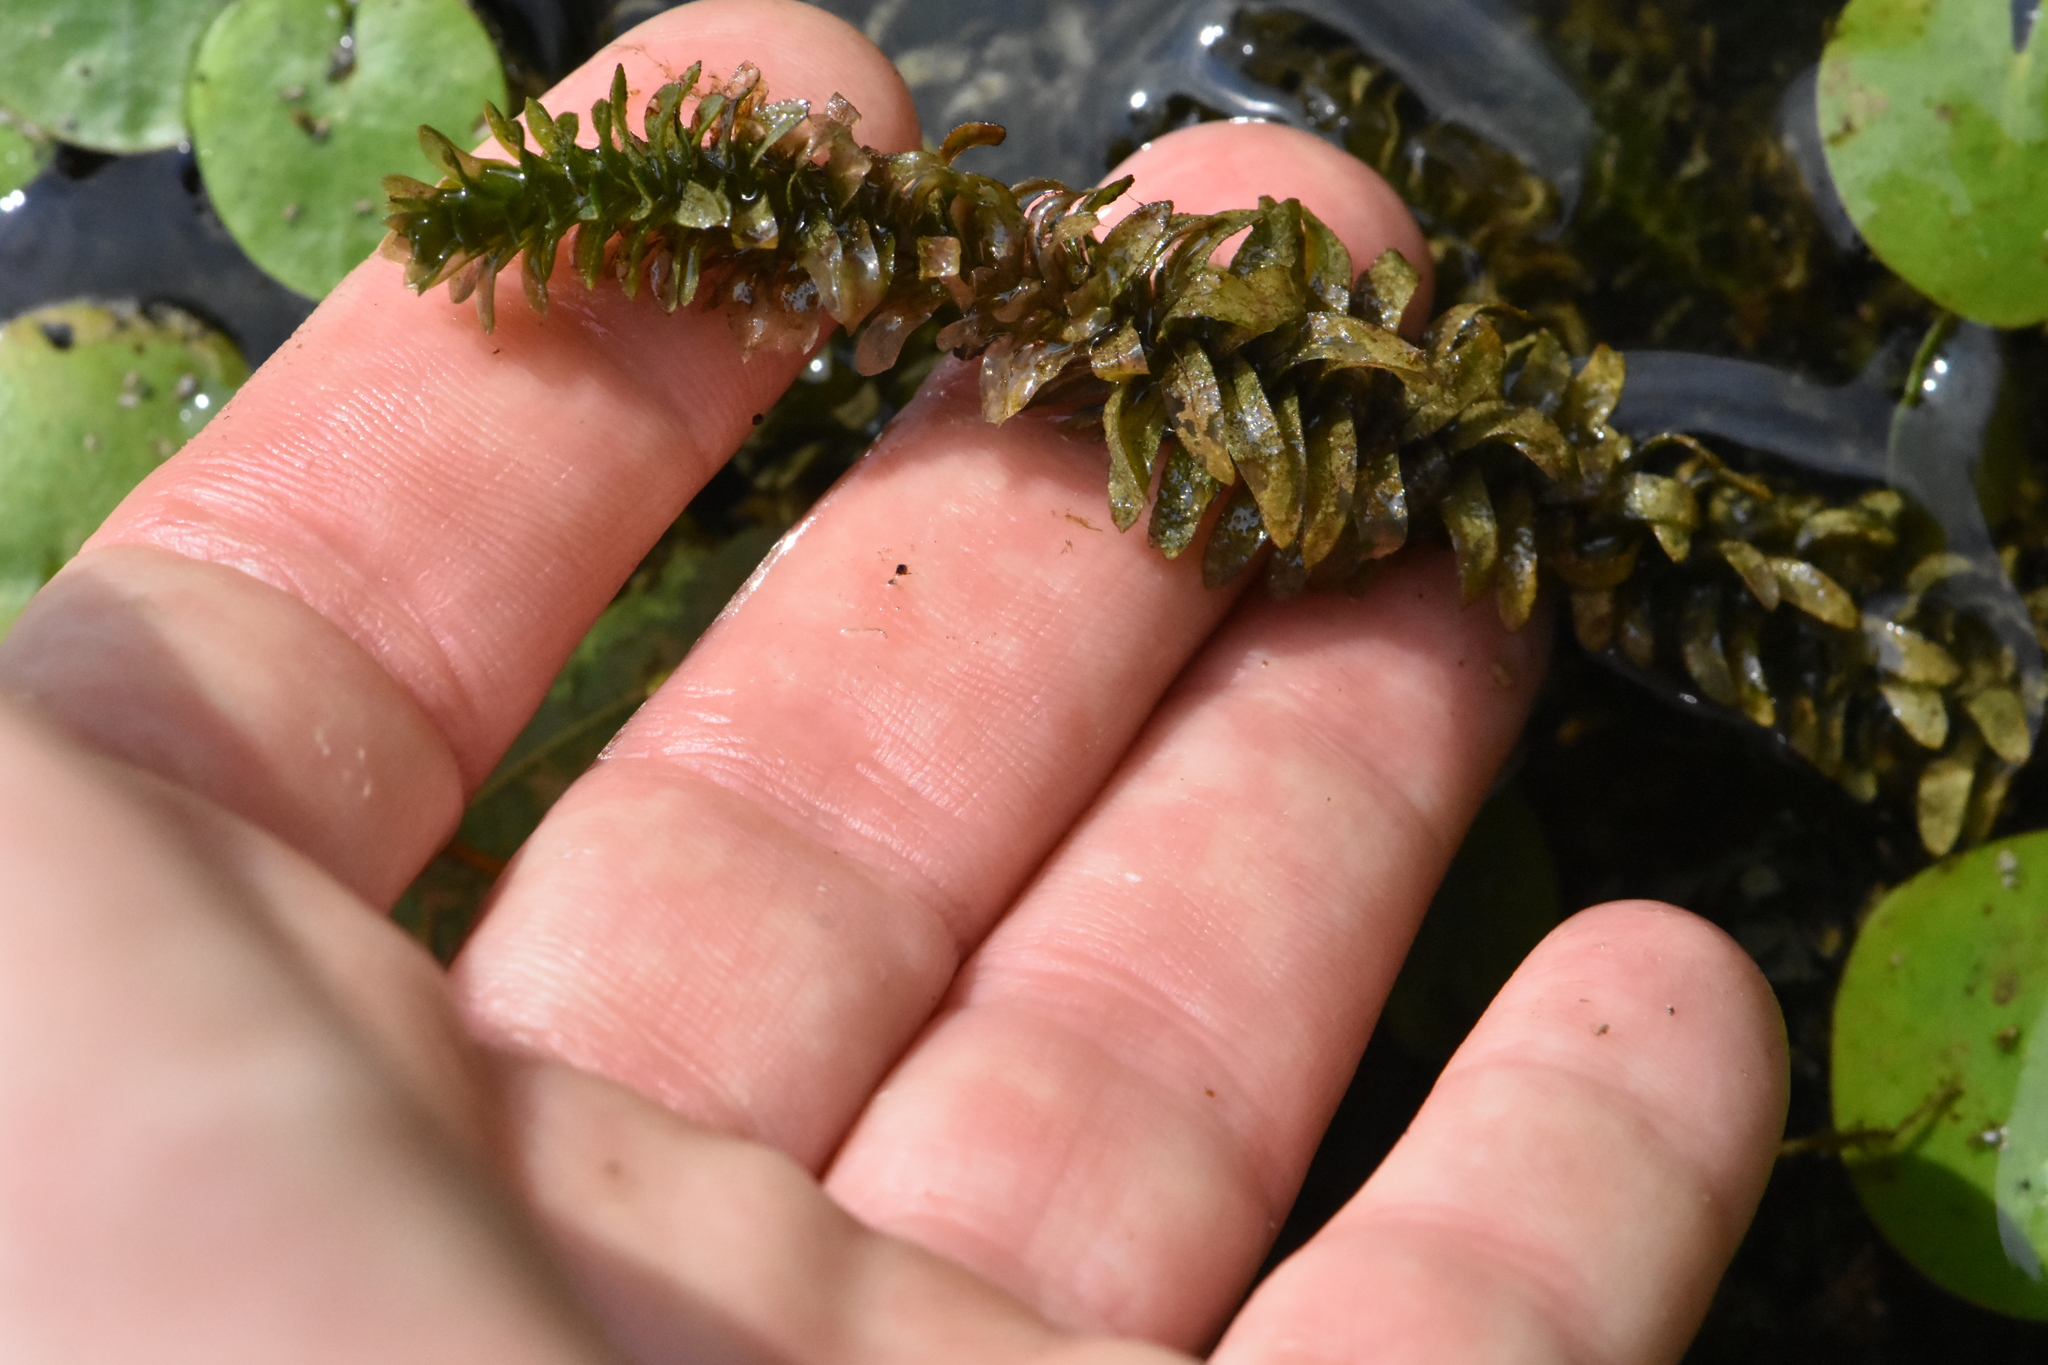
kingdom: Plantae
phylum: Tracheophyta
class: Liliopsida
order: Alismatales
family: Hydrocharitaceae
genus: Elodea
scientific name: Elodea canadensis
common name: Canadian waterweed
